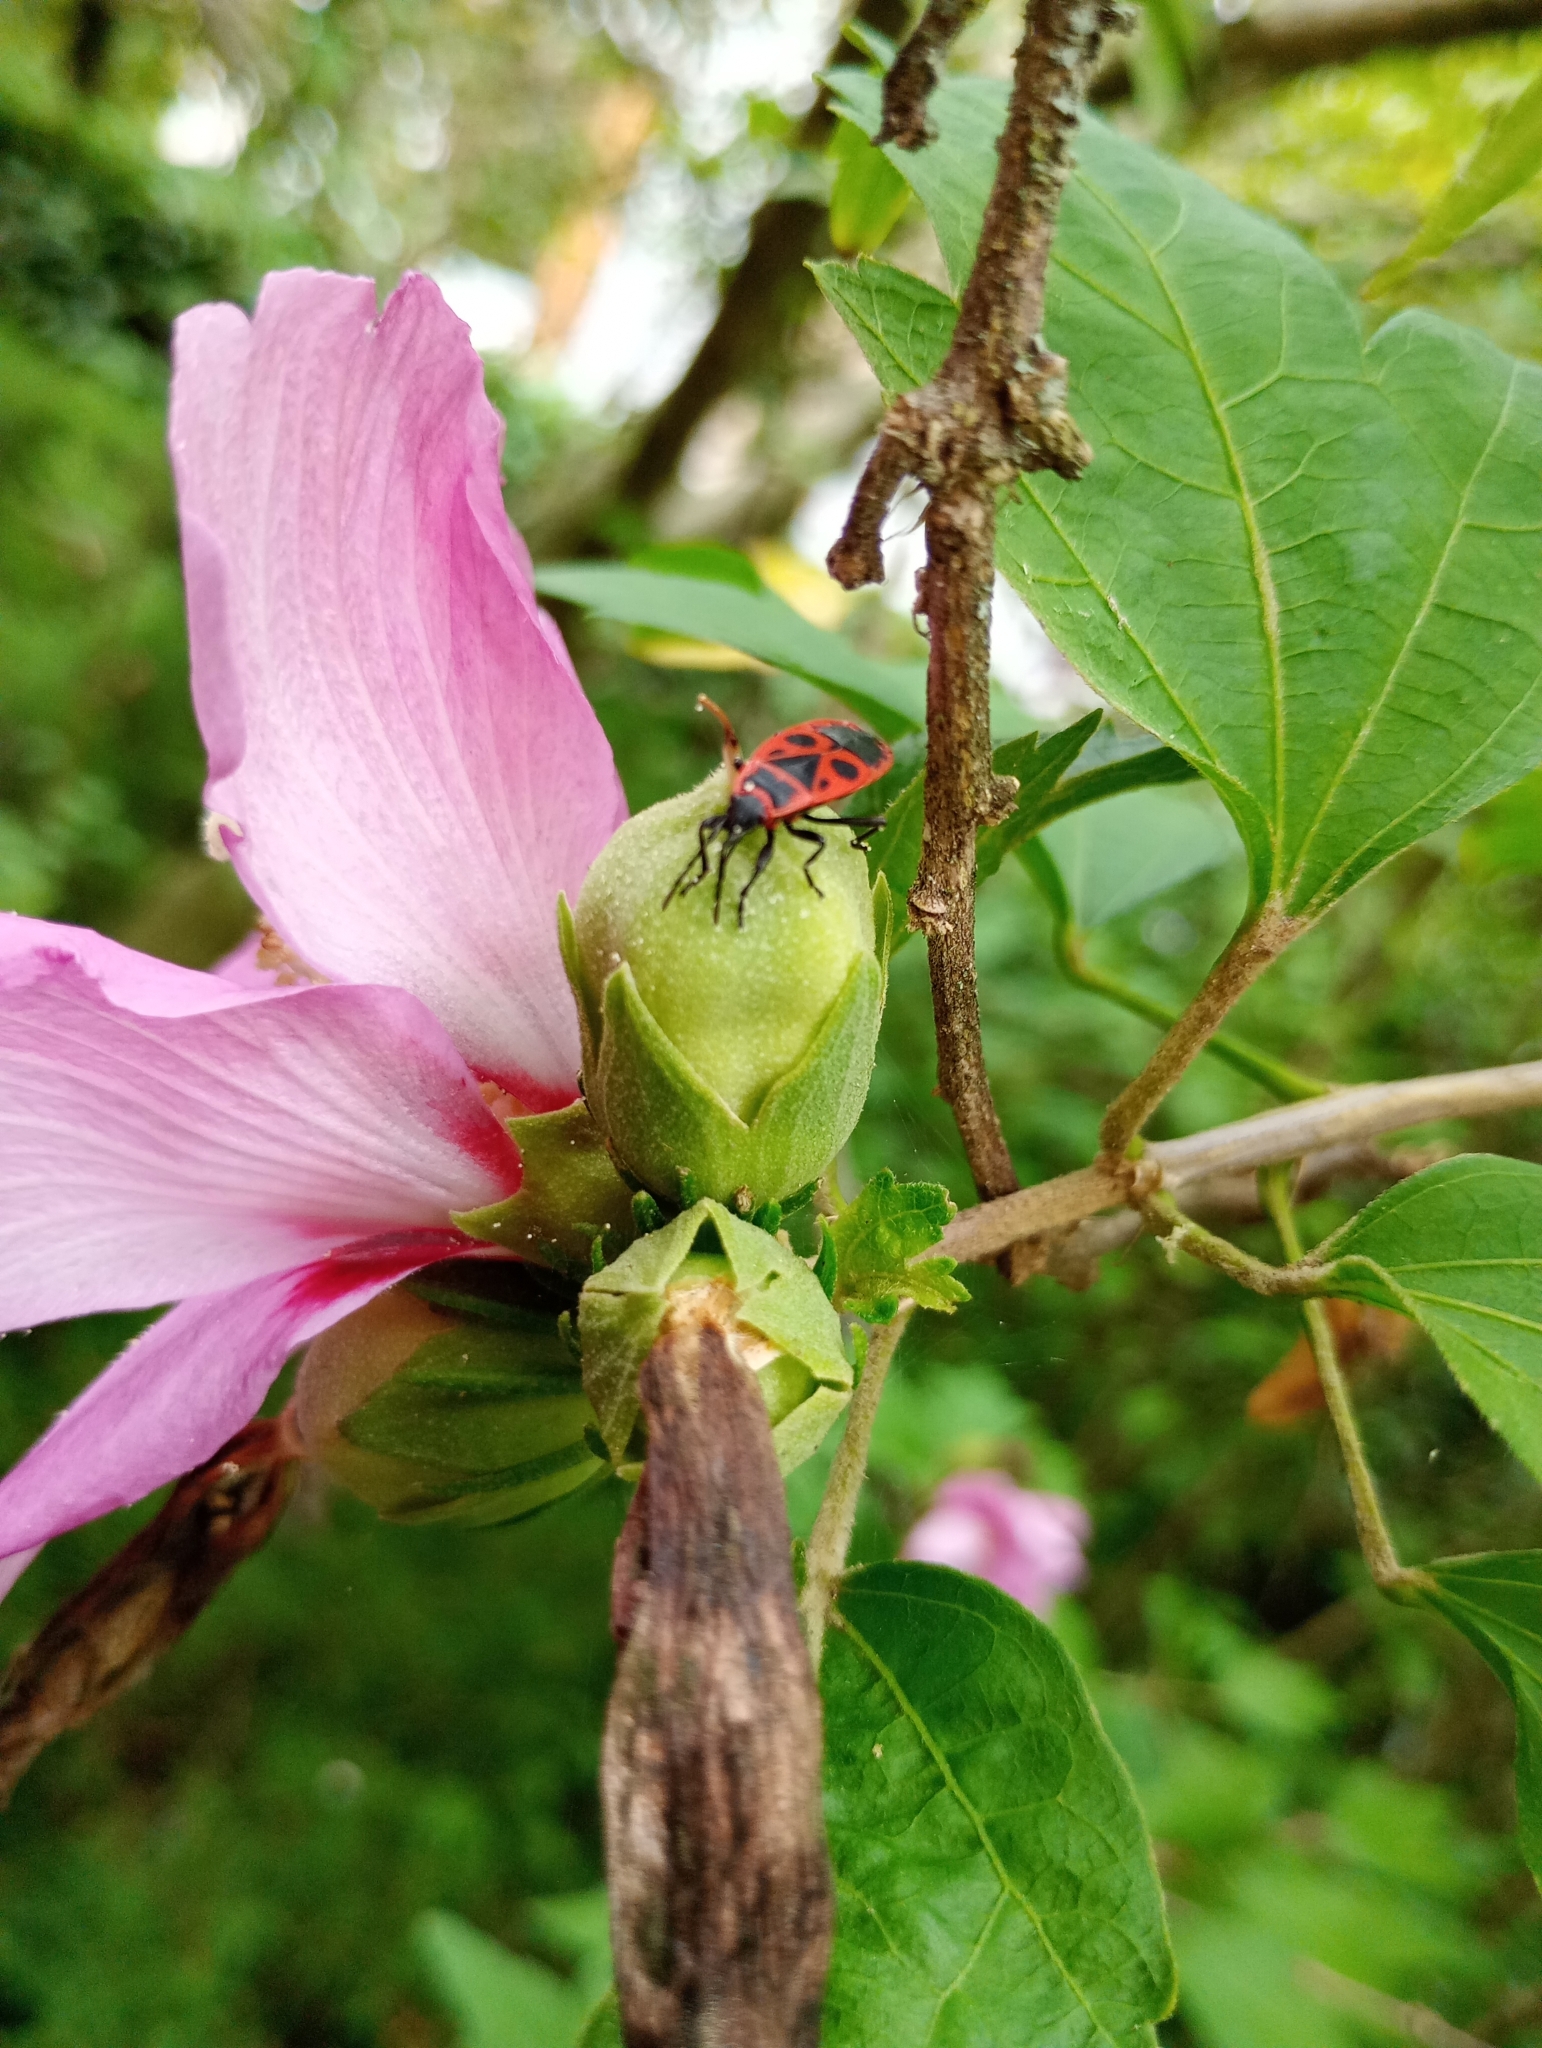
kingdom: Animalia
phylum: Arthropoda
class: Insecta
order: Hemiptera
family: Pyrrhocoridae
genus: Pyrrhocoris
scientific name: Pyrrhocoris apterus
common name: Firebug
